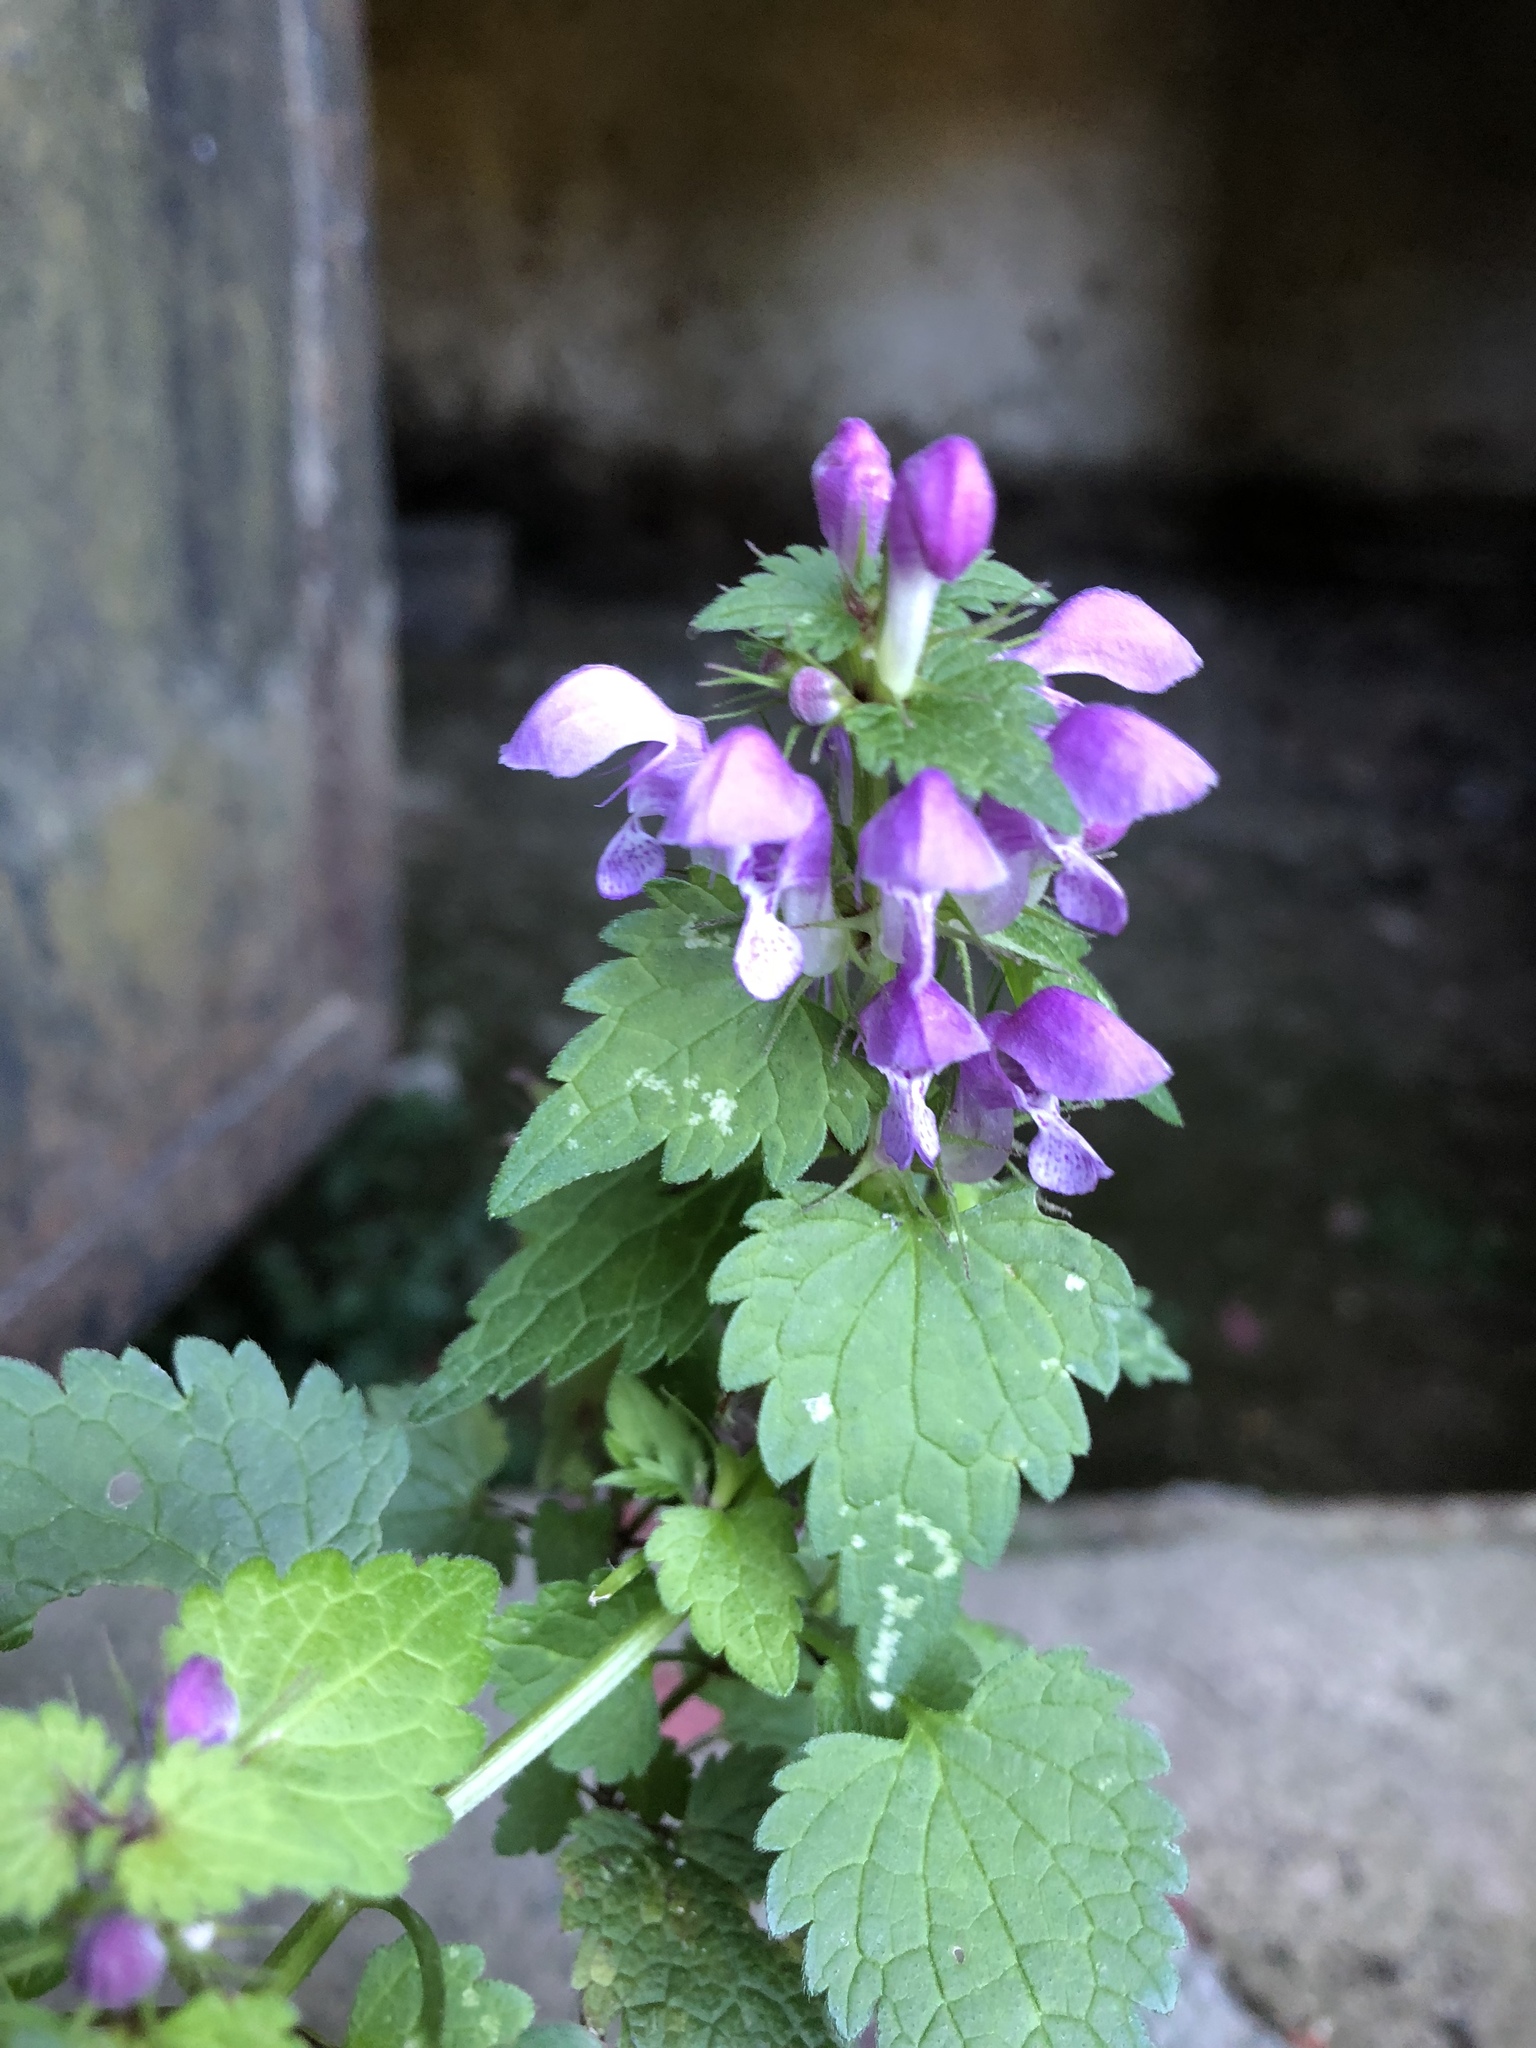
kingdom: Plantae
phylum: Tracheophyta
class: Magnoliopsida
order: Lamiales
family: Lamiaceae
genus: Lamium
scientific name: Lamium maculatum
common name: Spotted dead-nettle
